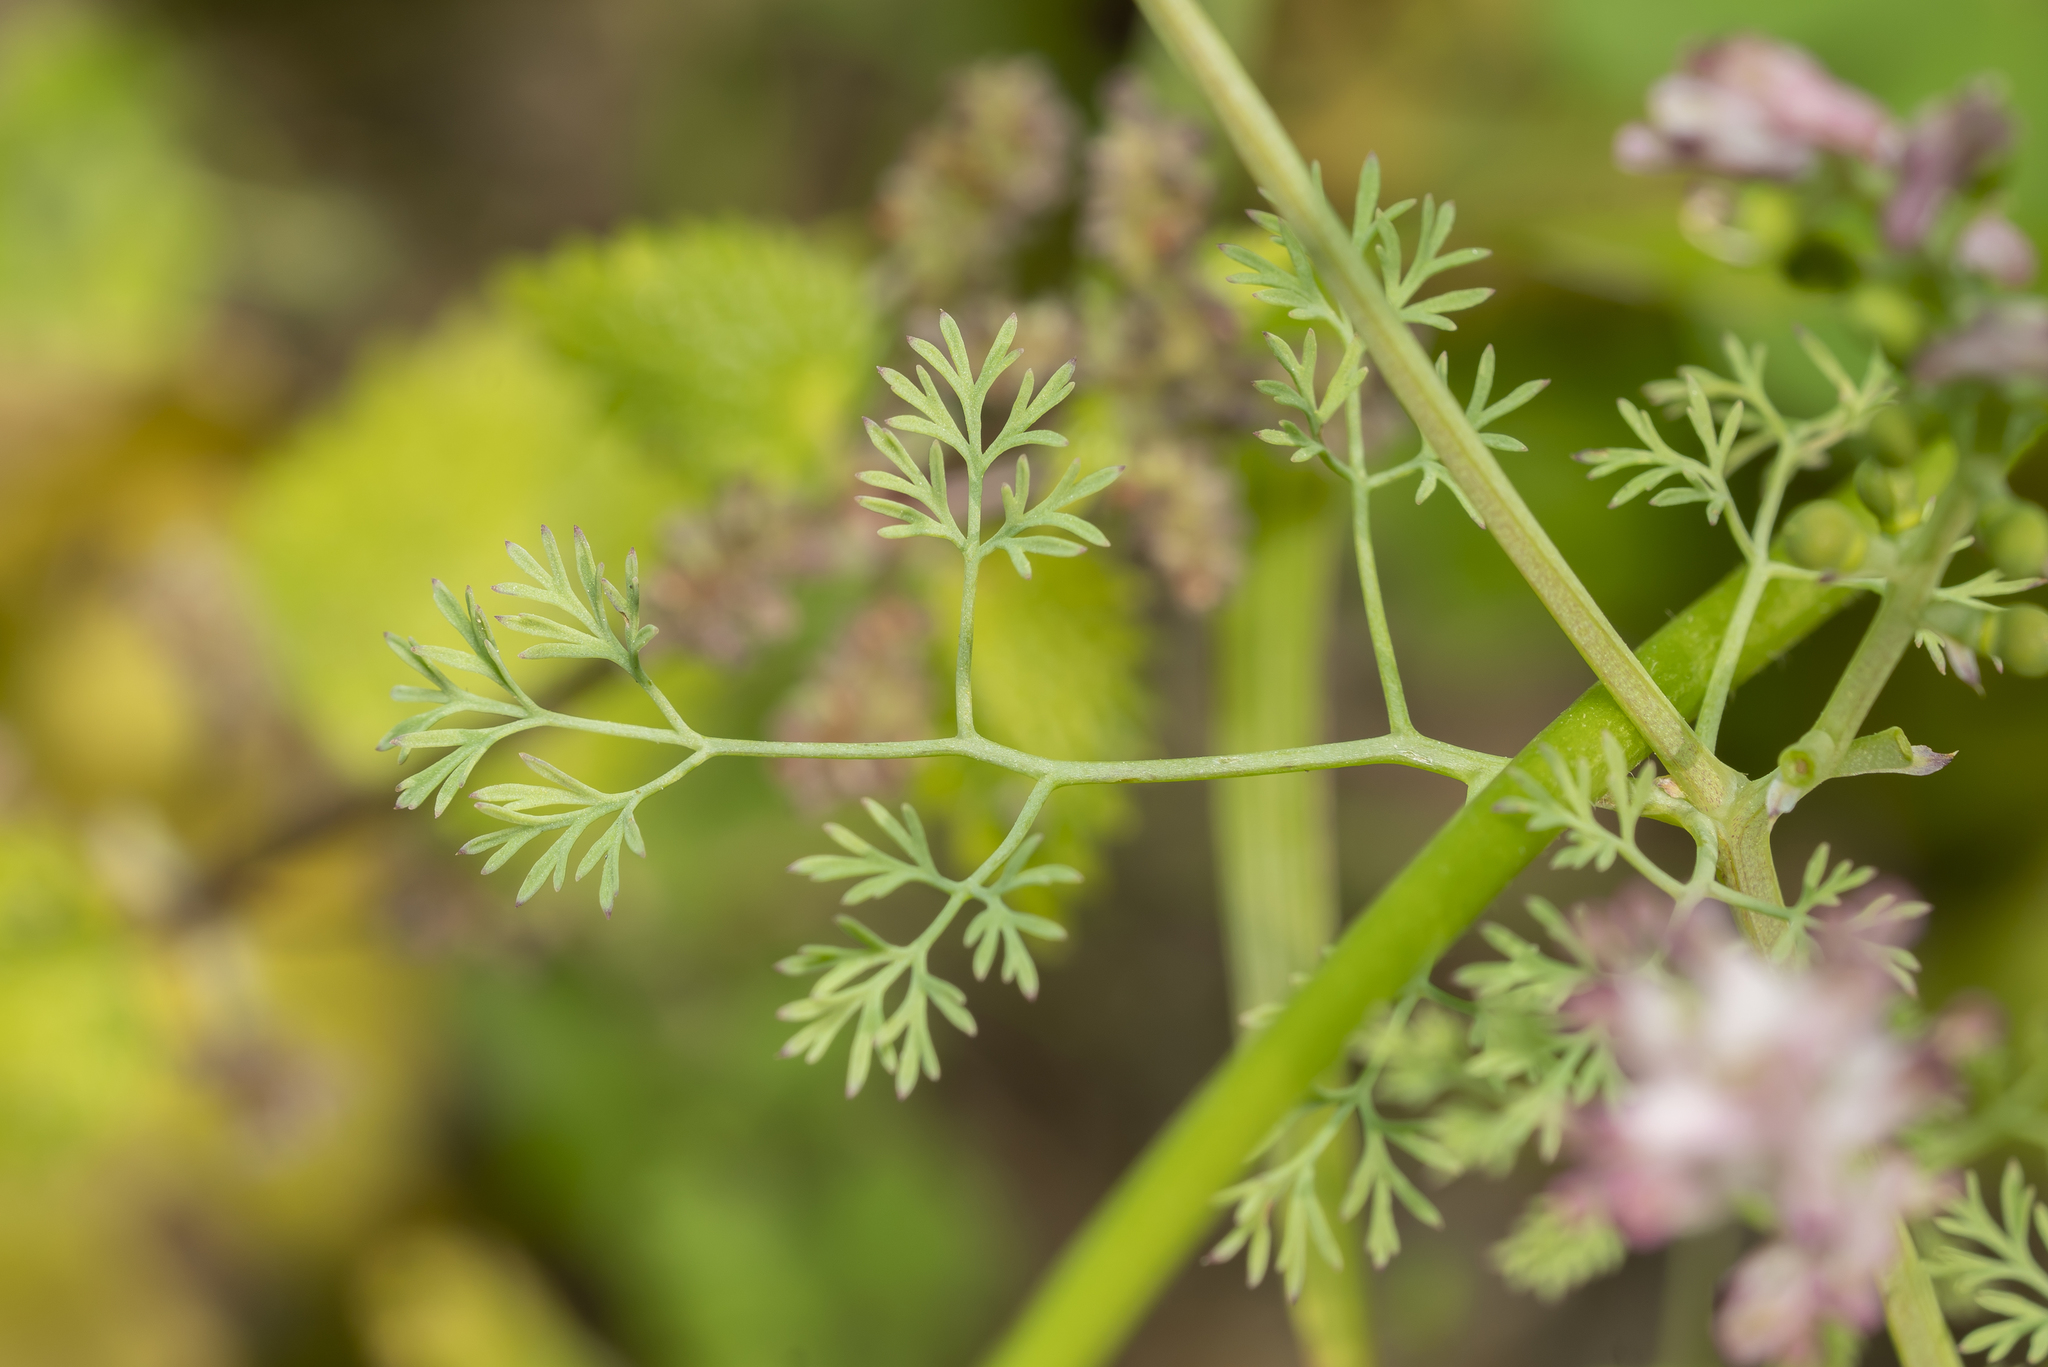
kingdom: Plantae
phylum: Tracheophyta
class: Magnoliopsida
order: Ranunculales
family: Papaveraceae
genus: Fumaria
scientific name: Fumaria parviflora
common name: Fine-leaved fumitory
